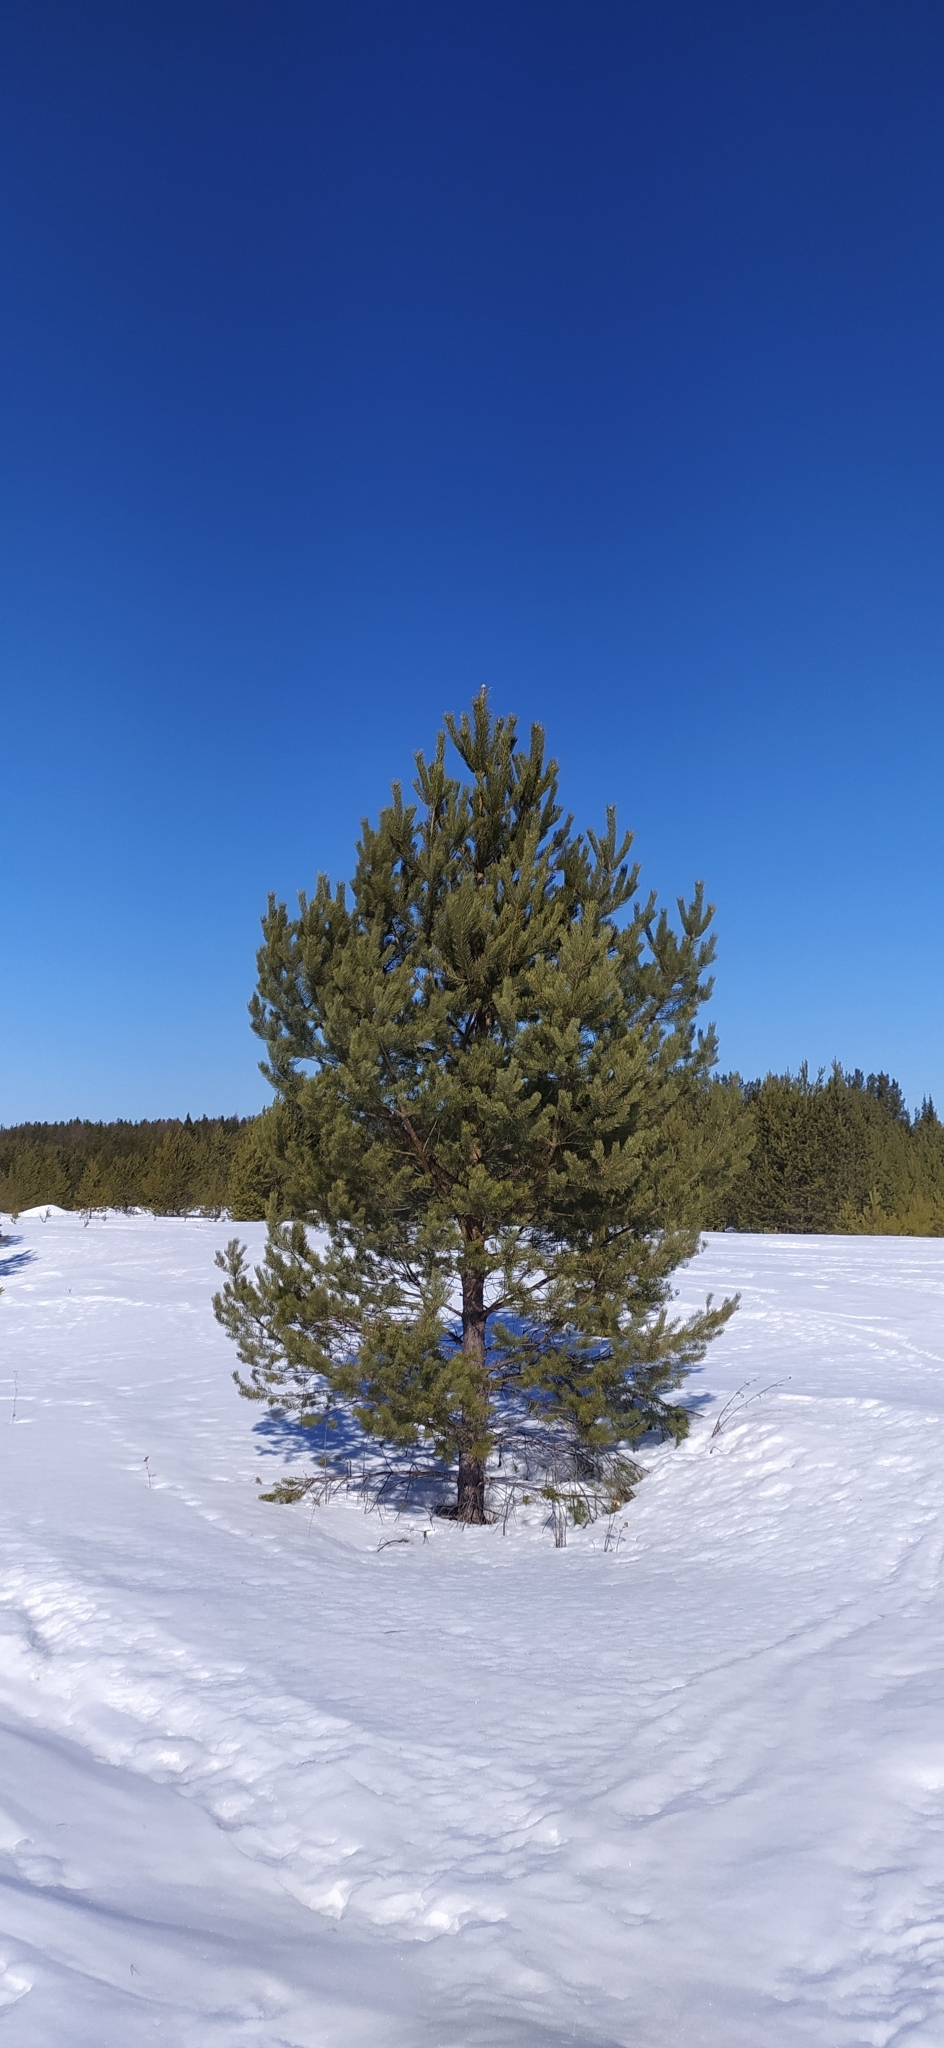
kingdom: Plantae
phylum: Tracheophyta
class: Pinopsida
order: Pinales
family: Pinaceae
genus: Pinus
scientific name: Pinus sylvestris
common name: Scots pine
